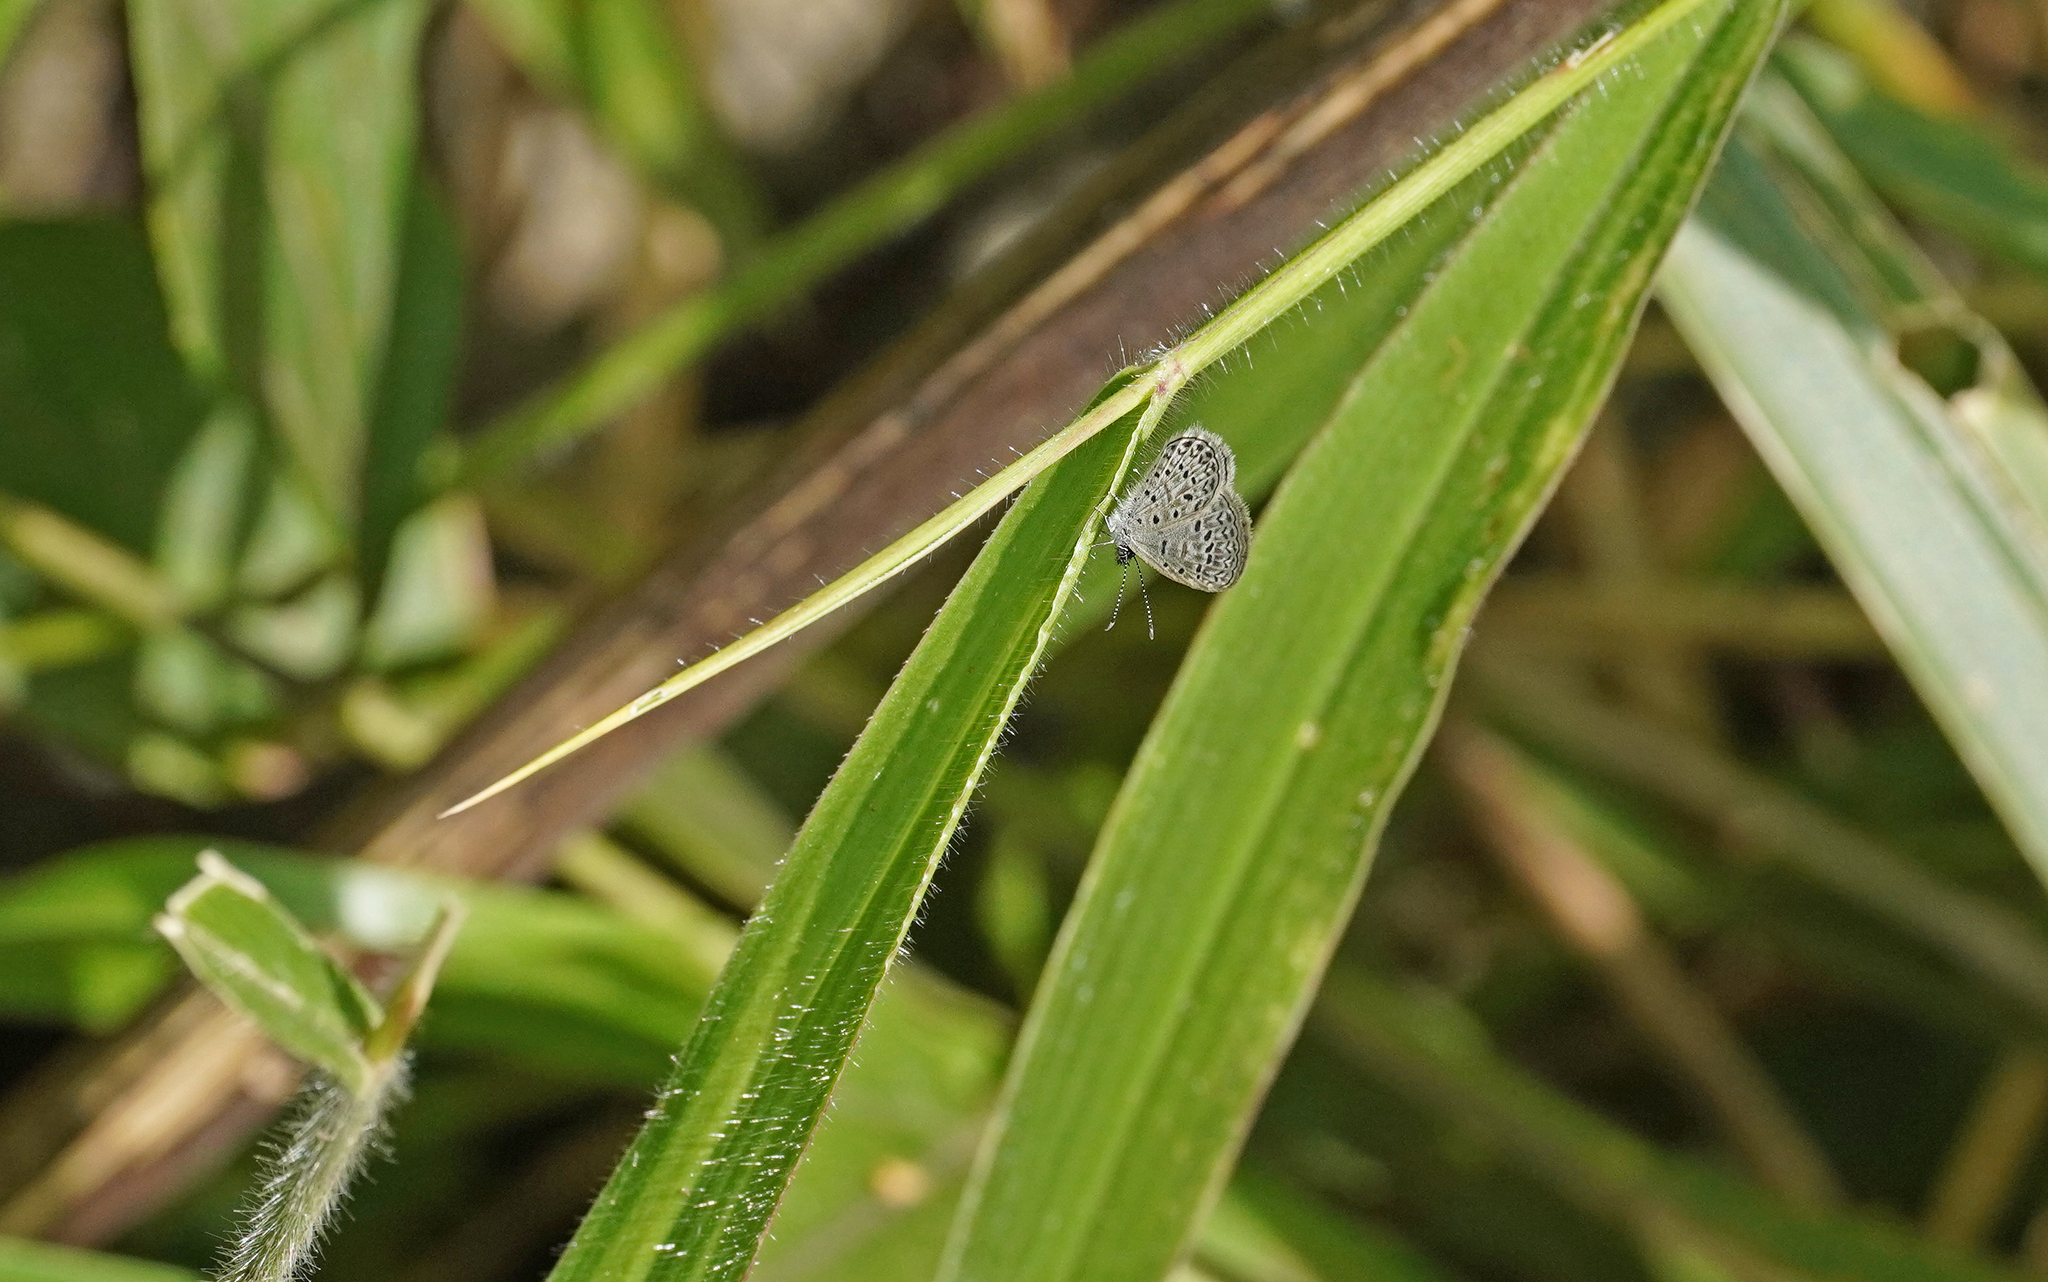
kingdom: Animalia
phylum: Arthropoda
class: Insecta
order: Lepidoptera
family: Lycaenidae
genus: Lycaena
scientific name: Lycaena cyna
